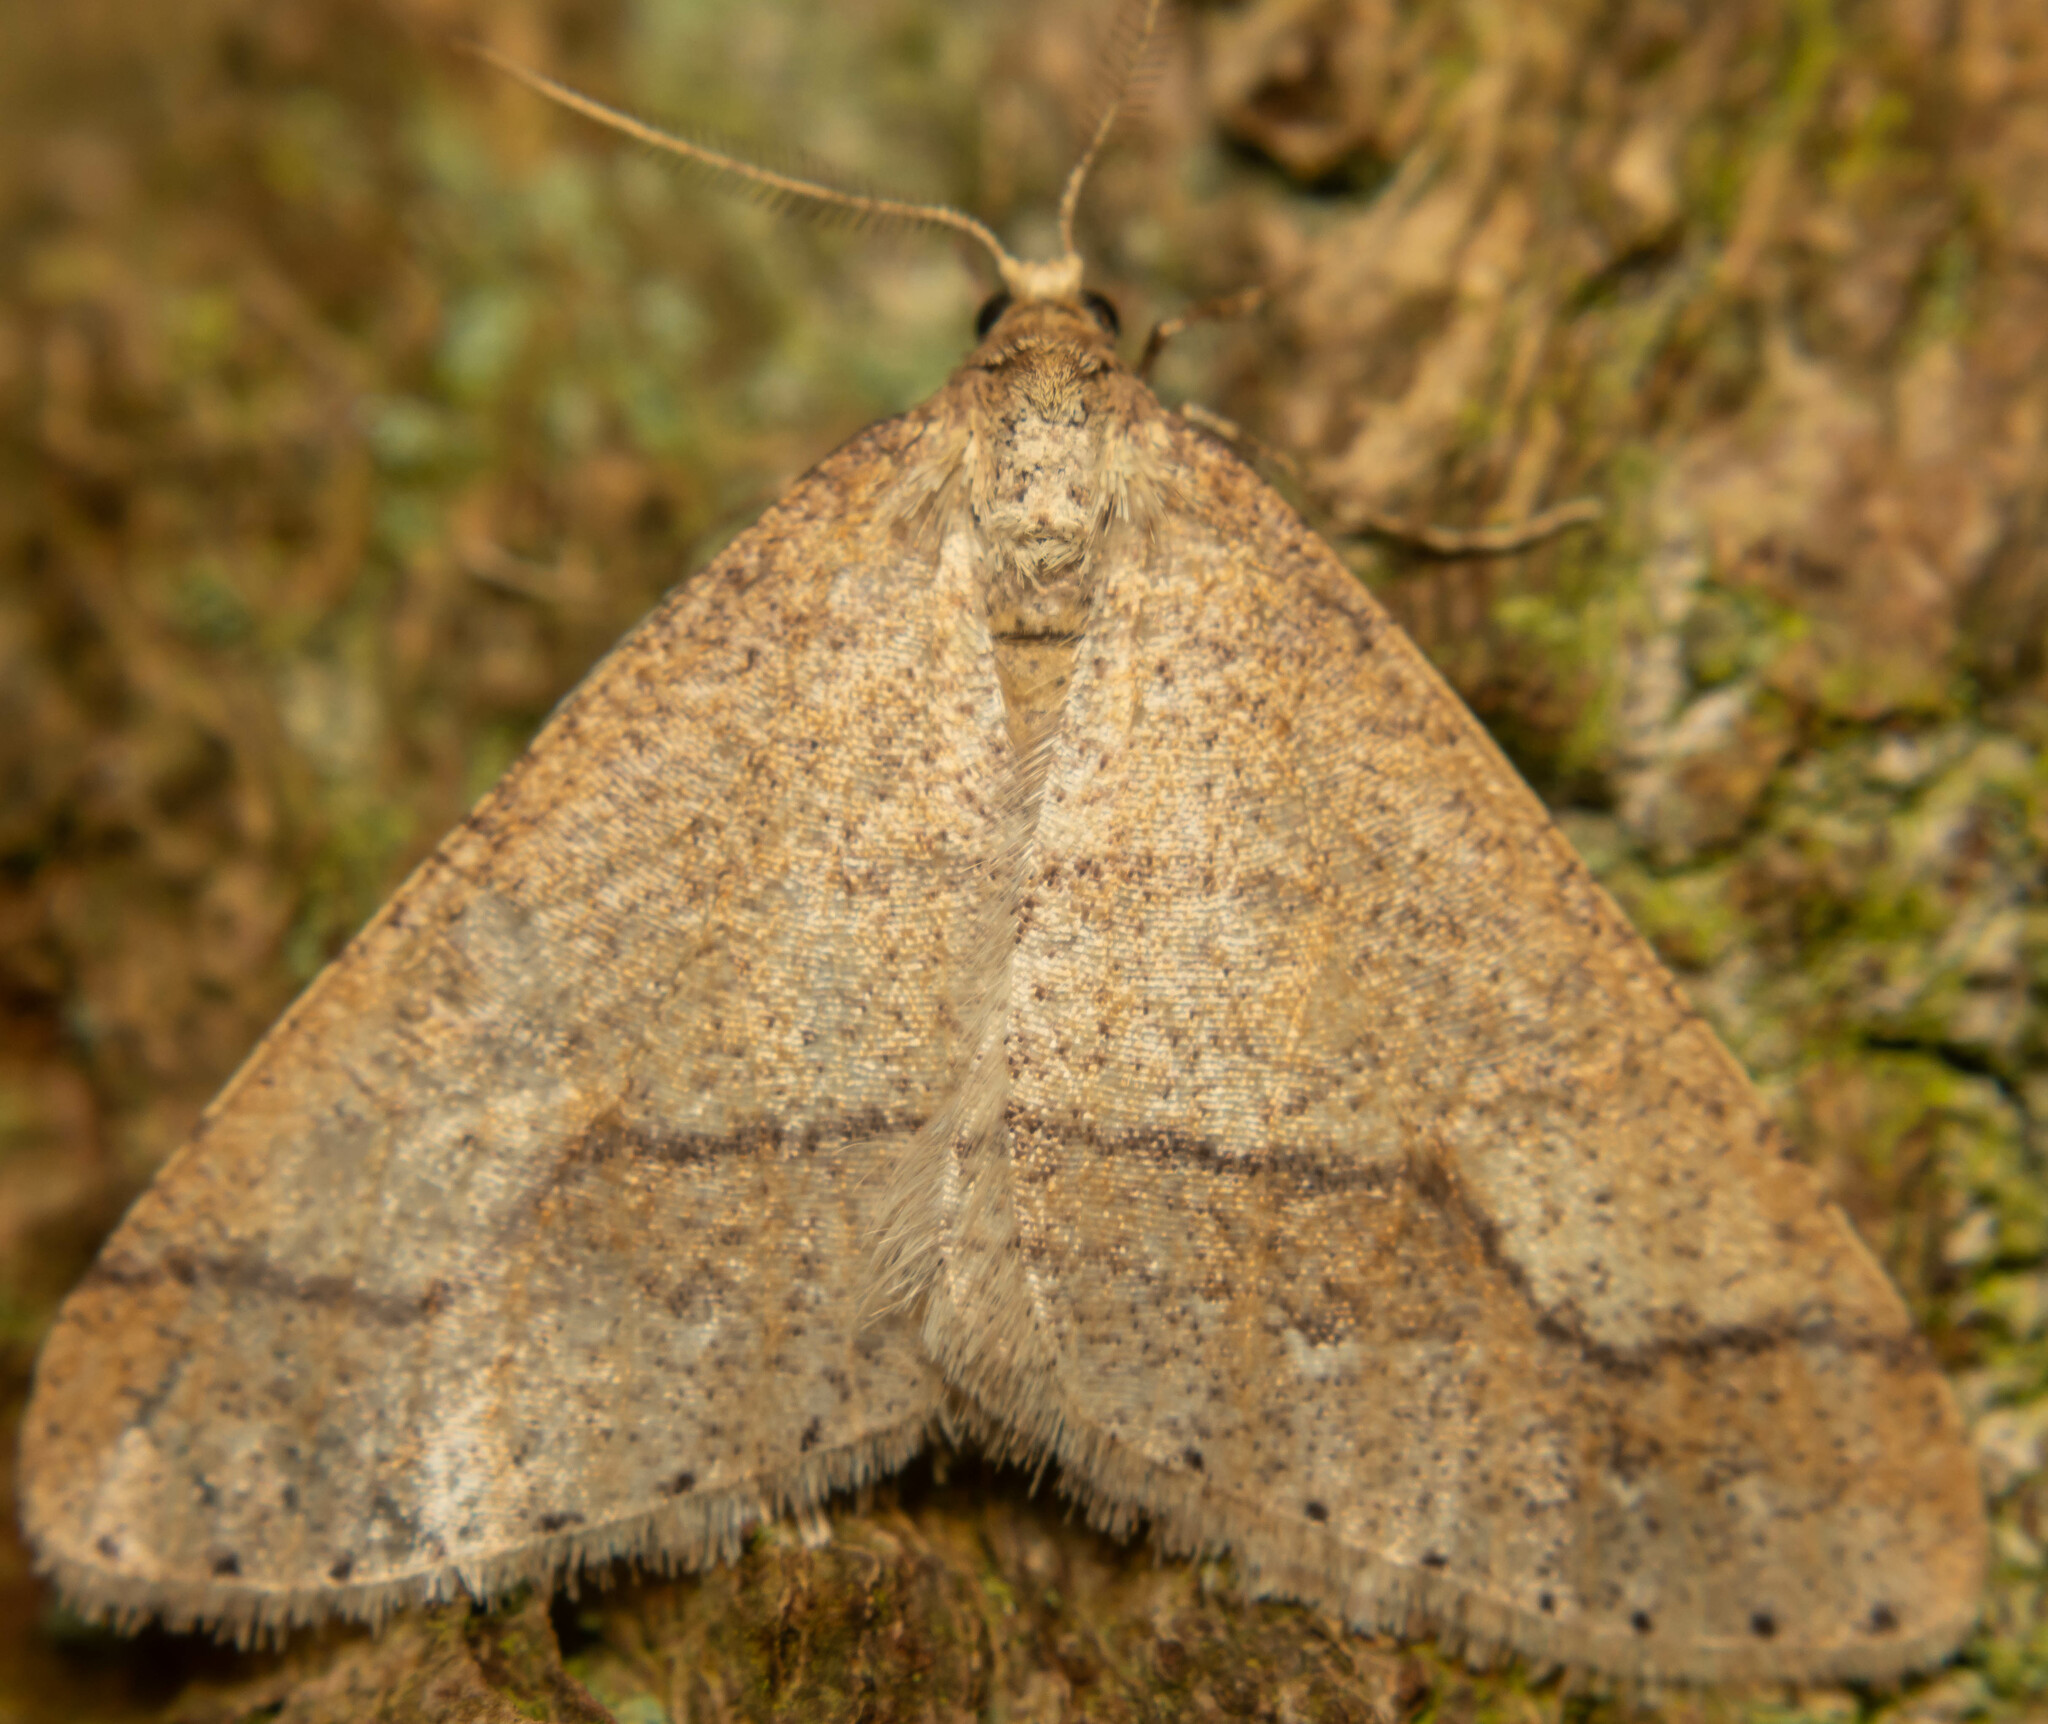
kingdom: Animalia
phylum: Arthropoda
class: Insecta
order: Lepidoptera
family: Geometridae
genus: Agriopis
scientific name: Agriopis marginaria
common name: Dotted border
